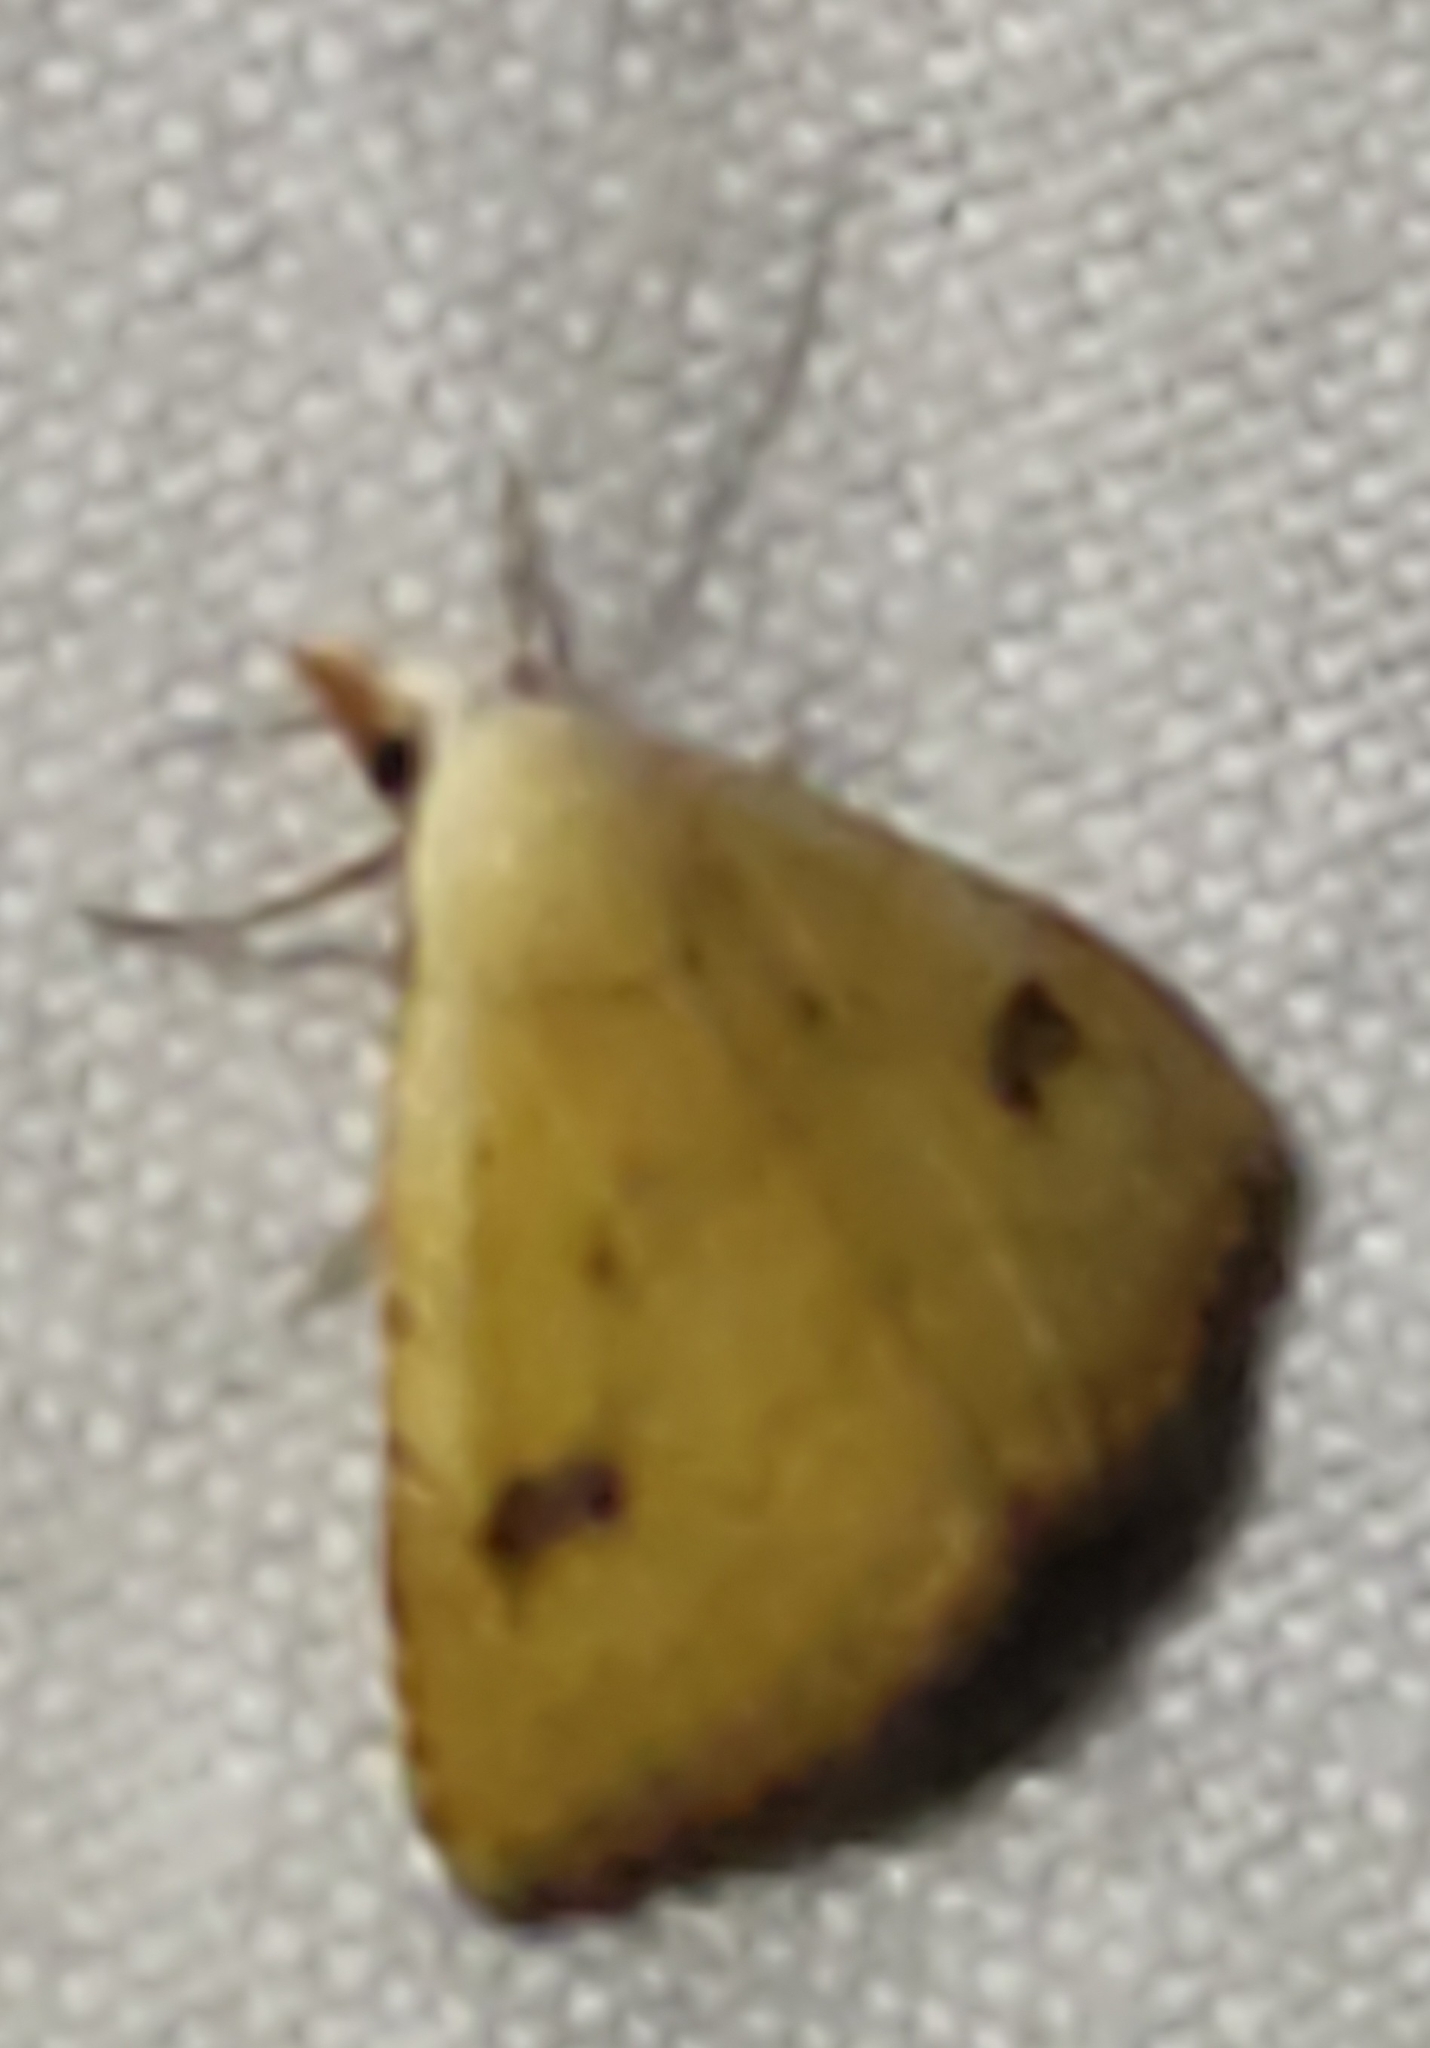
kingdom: Animalia
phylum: Arthropoda
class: Insecta
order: Lepidoptera
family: Erebidae
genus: Rivula
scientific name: Rivula sericealis
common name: Straw dot
